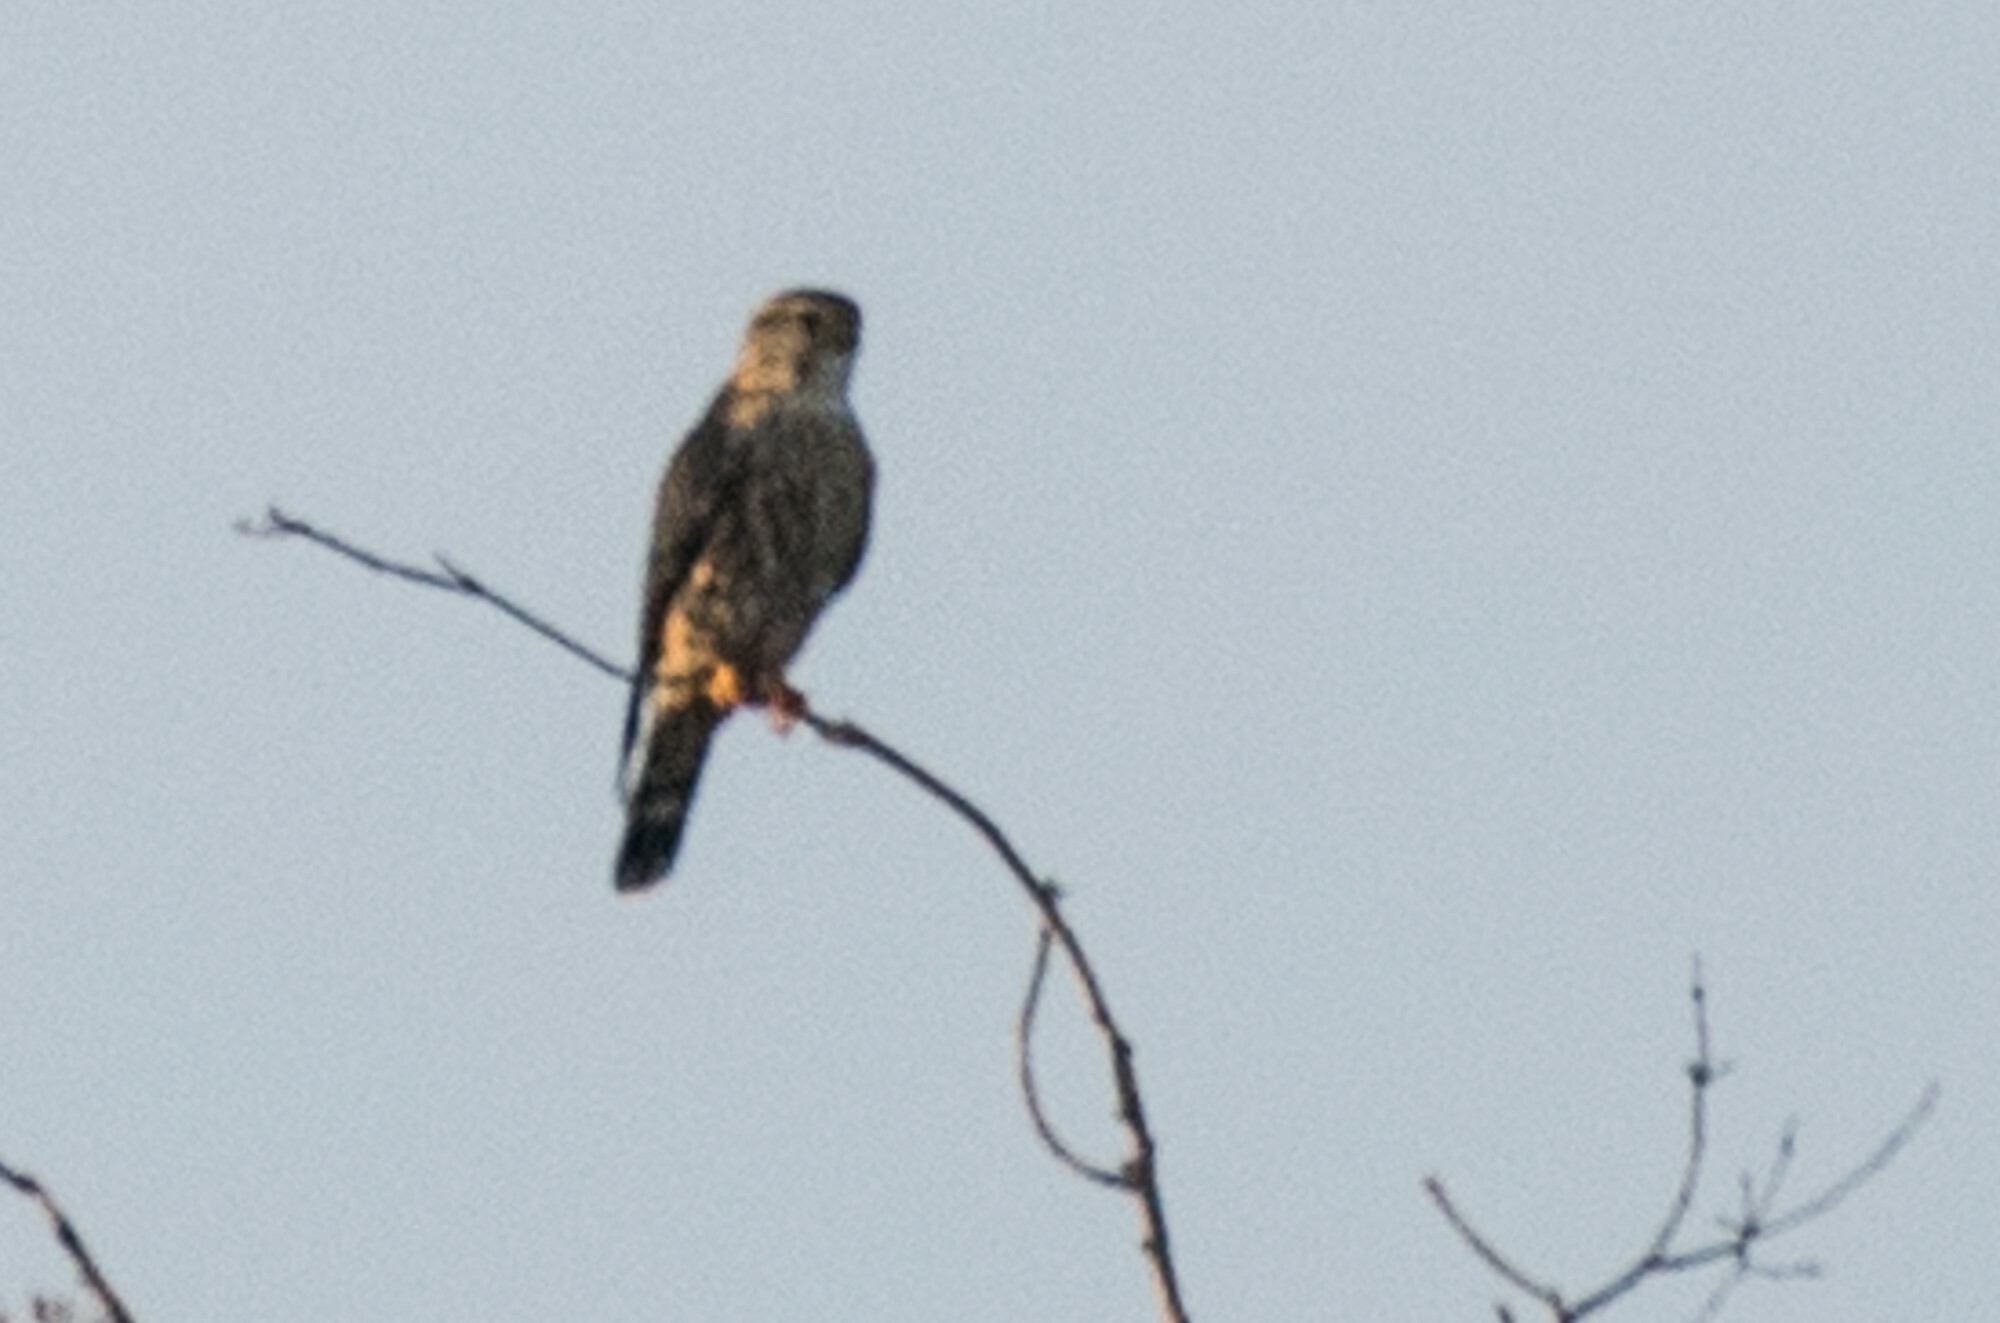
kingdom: Animalia
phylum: Chordata
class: Aves
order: Falconiformes
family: Falconidae
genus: Falco
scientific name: Falco columbarius
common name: Merlin
